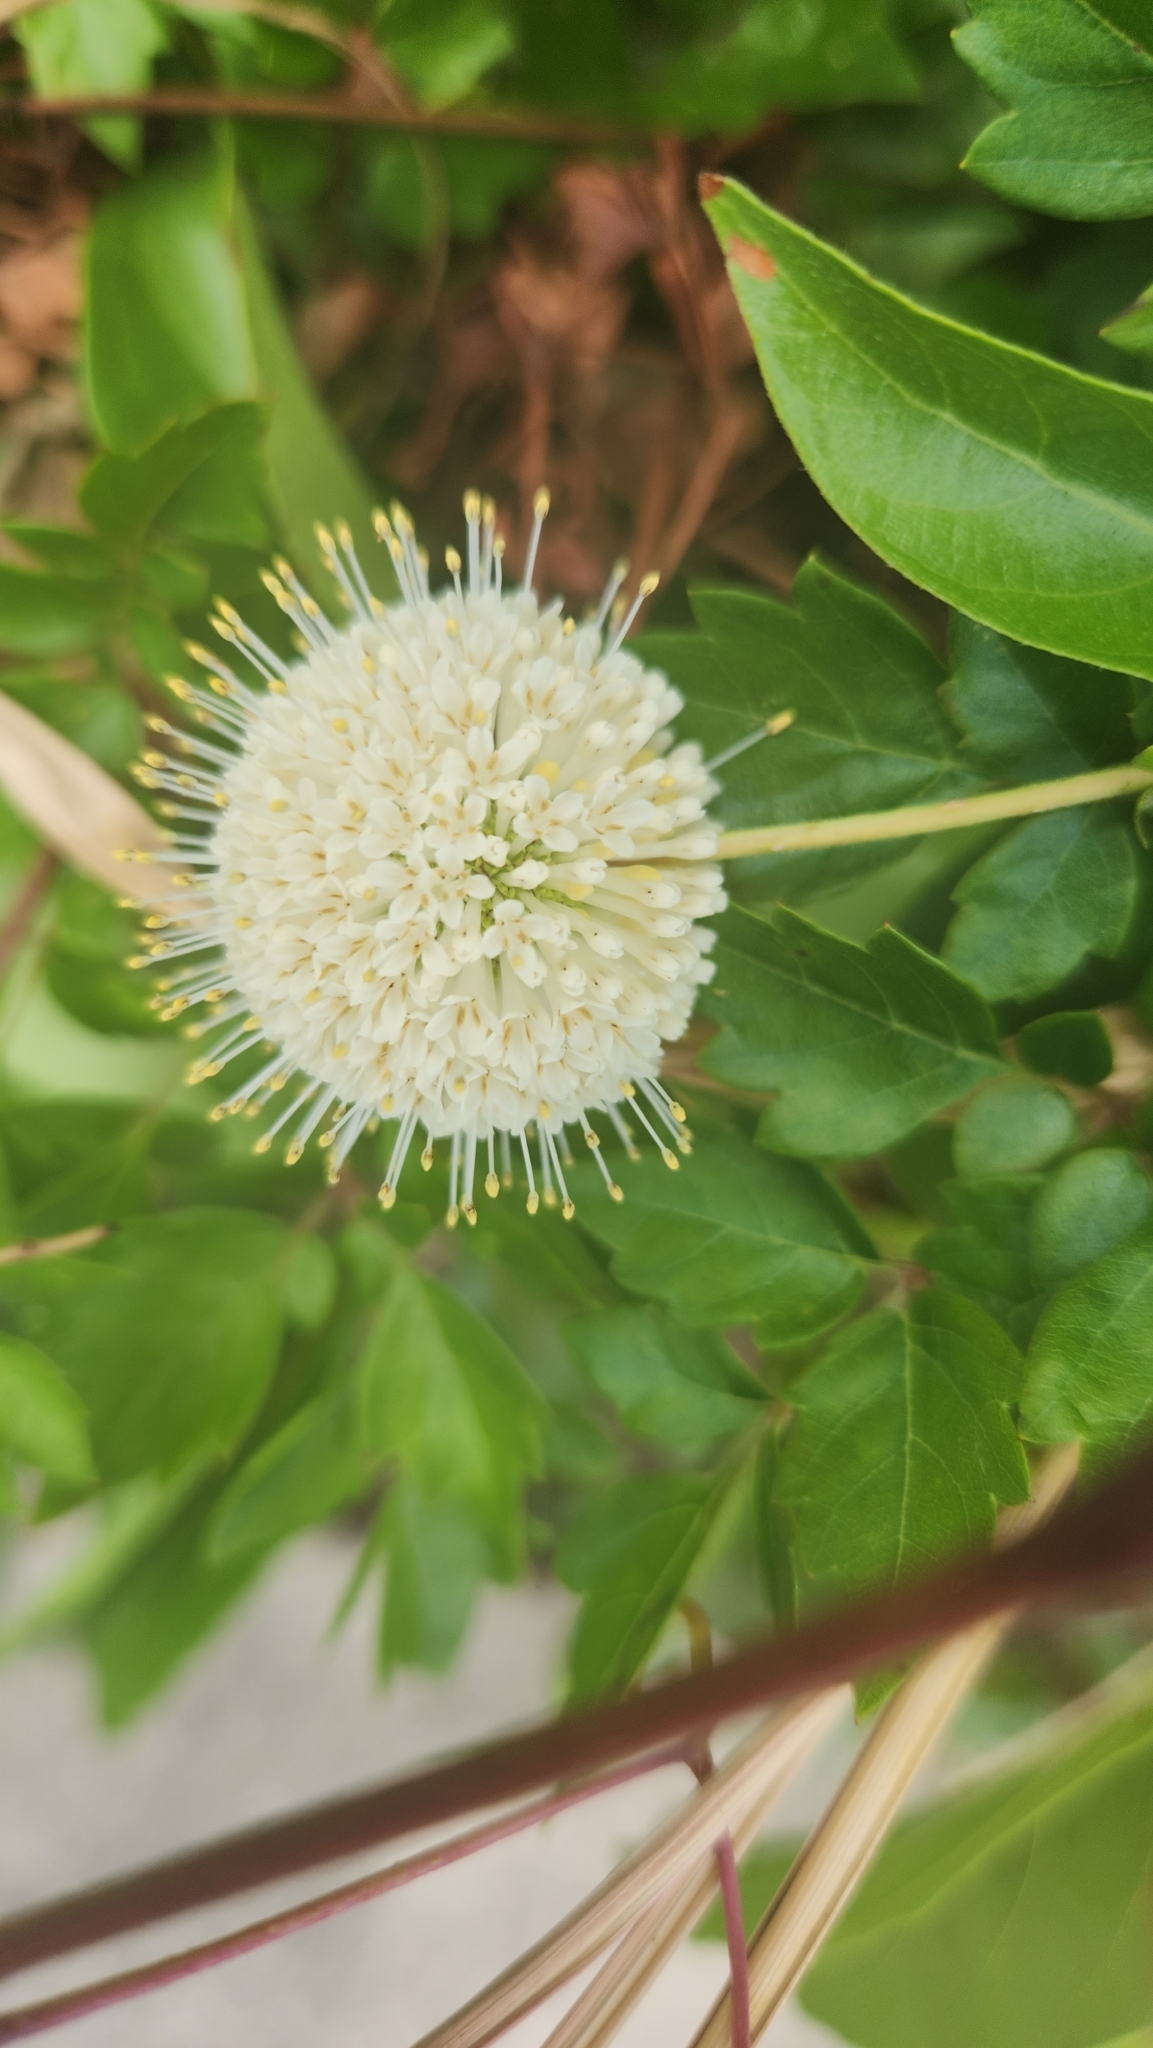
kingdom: Plantae
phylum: Tracheophyta
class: Magnoliopsida
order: Gentianales
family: Rubiaceae
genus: Cephalanthus
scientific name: Cephalanthus occidentalis
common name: Button-willow
